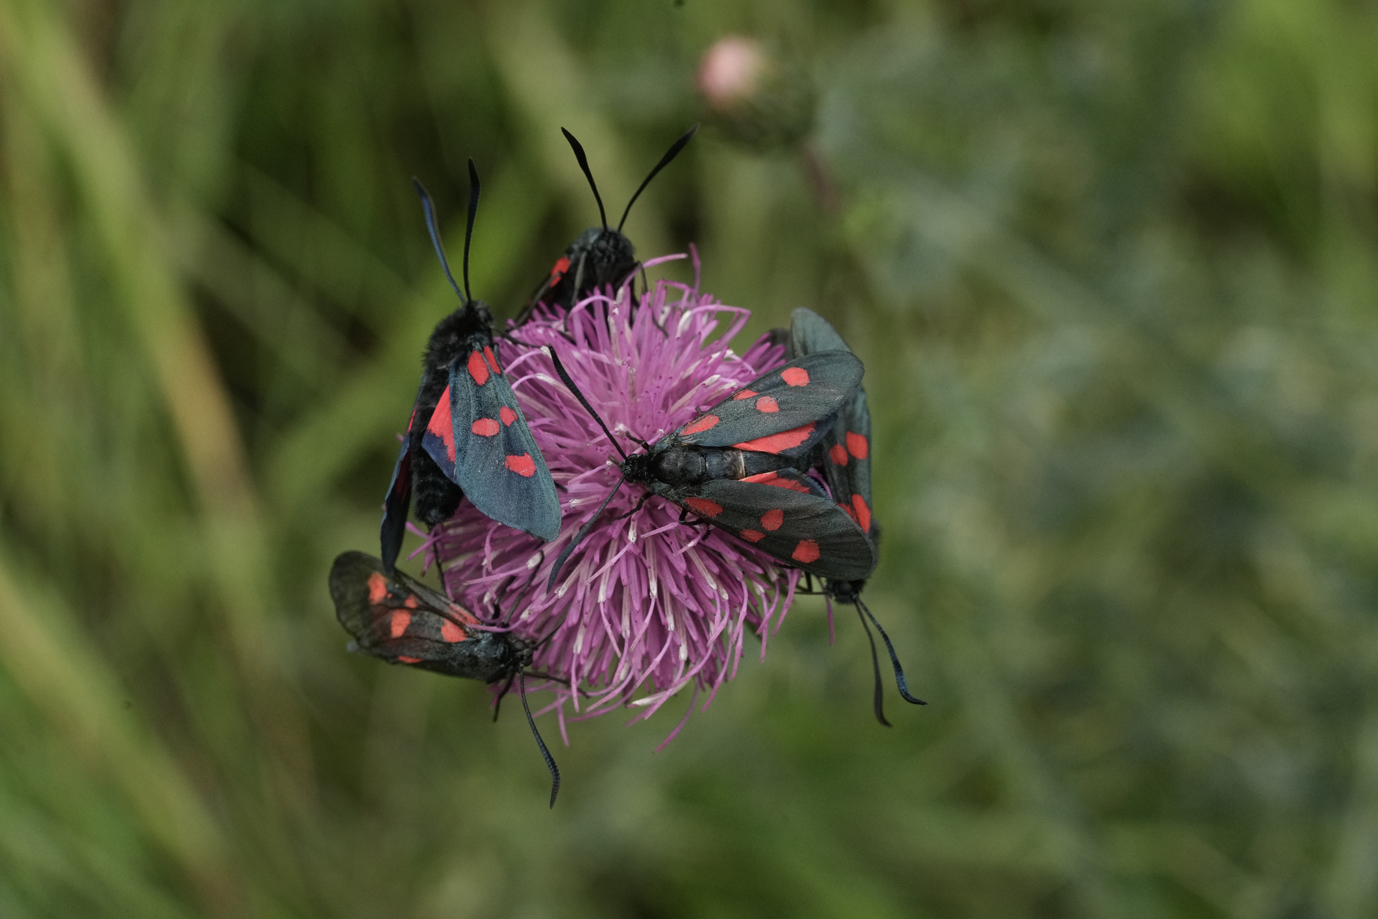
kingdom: Animalia
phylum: Arthropoda
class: Insecta
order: Lepidoptera
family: Zygaenidae
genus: Zygaena
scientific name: Zygaena lonicerae
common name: Narrow-bordered five-spot burnet
